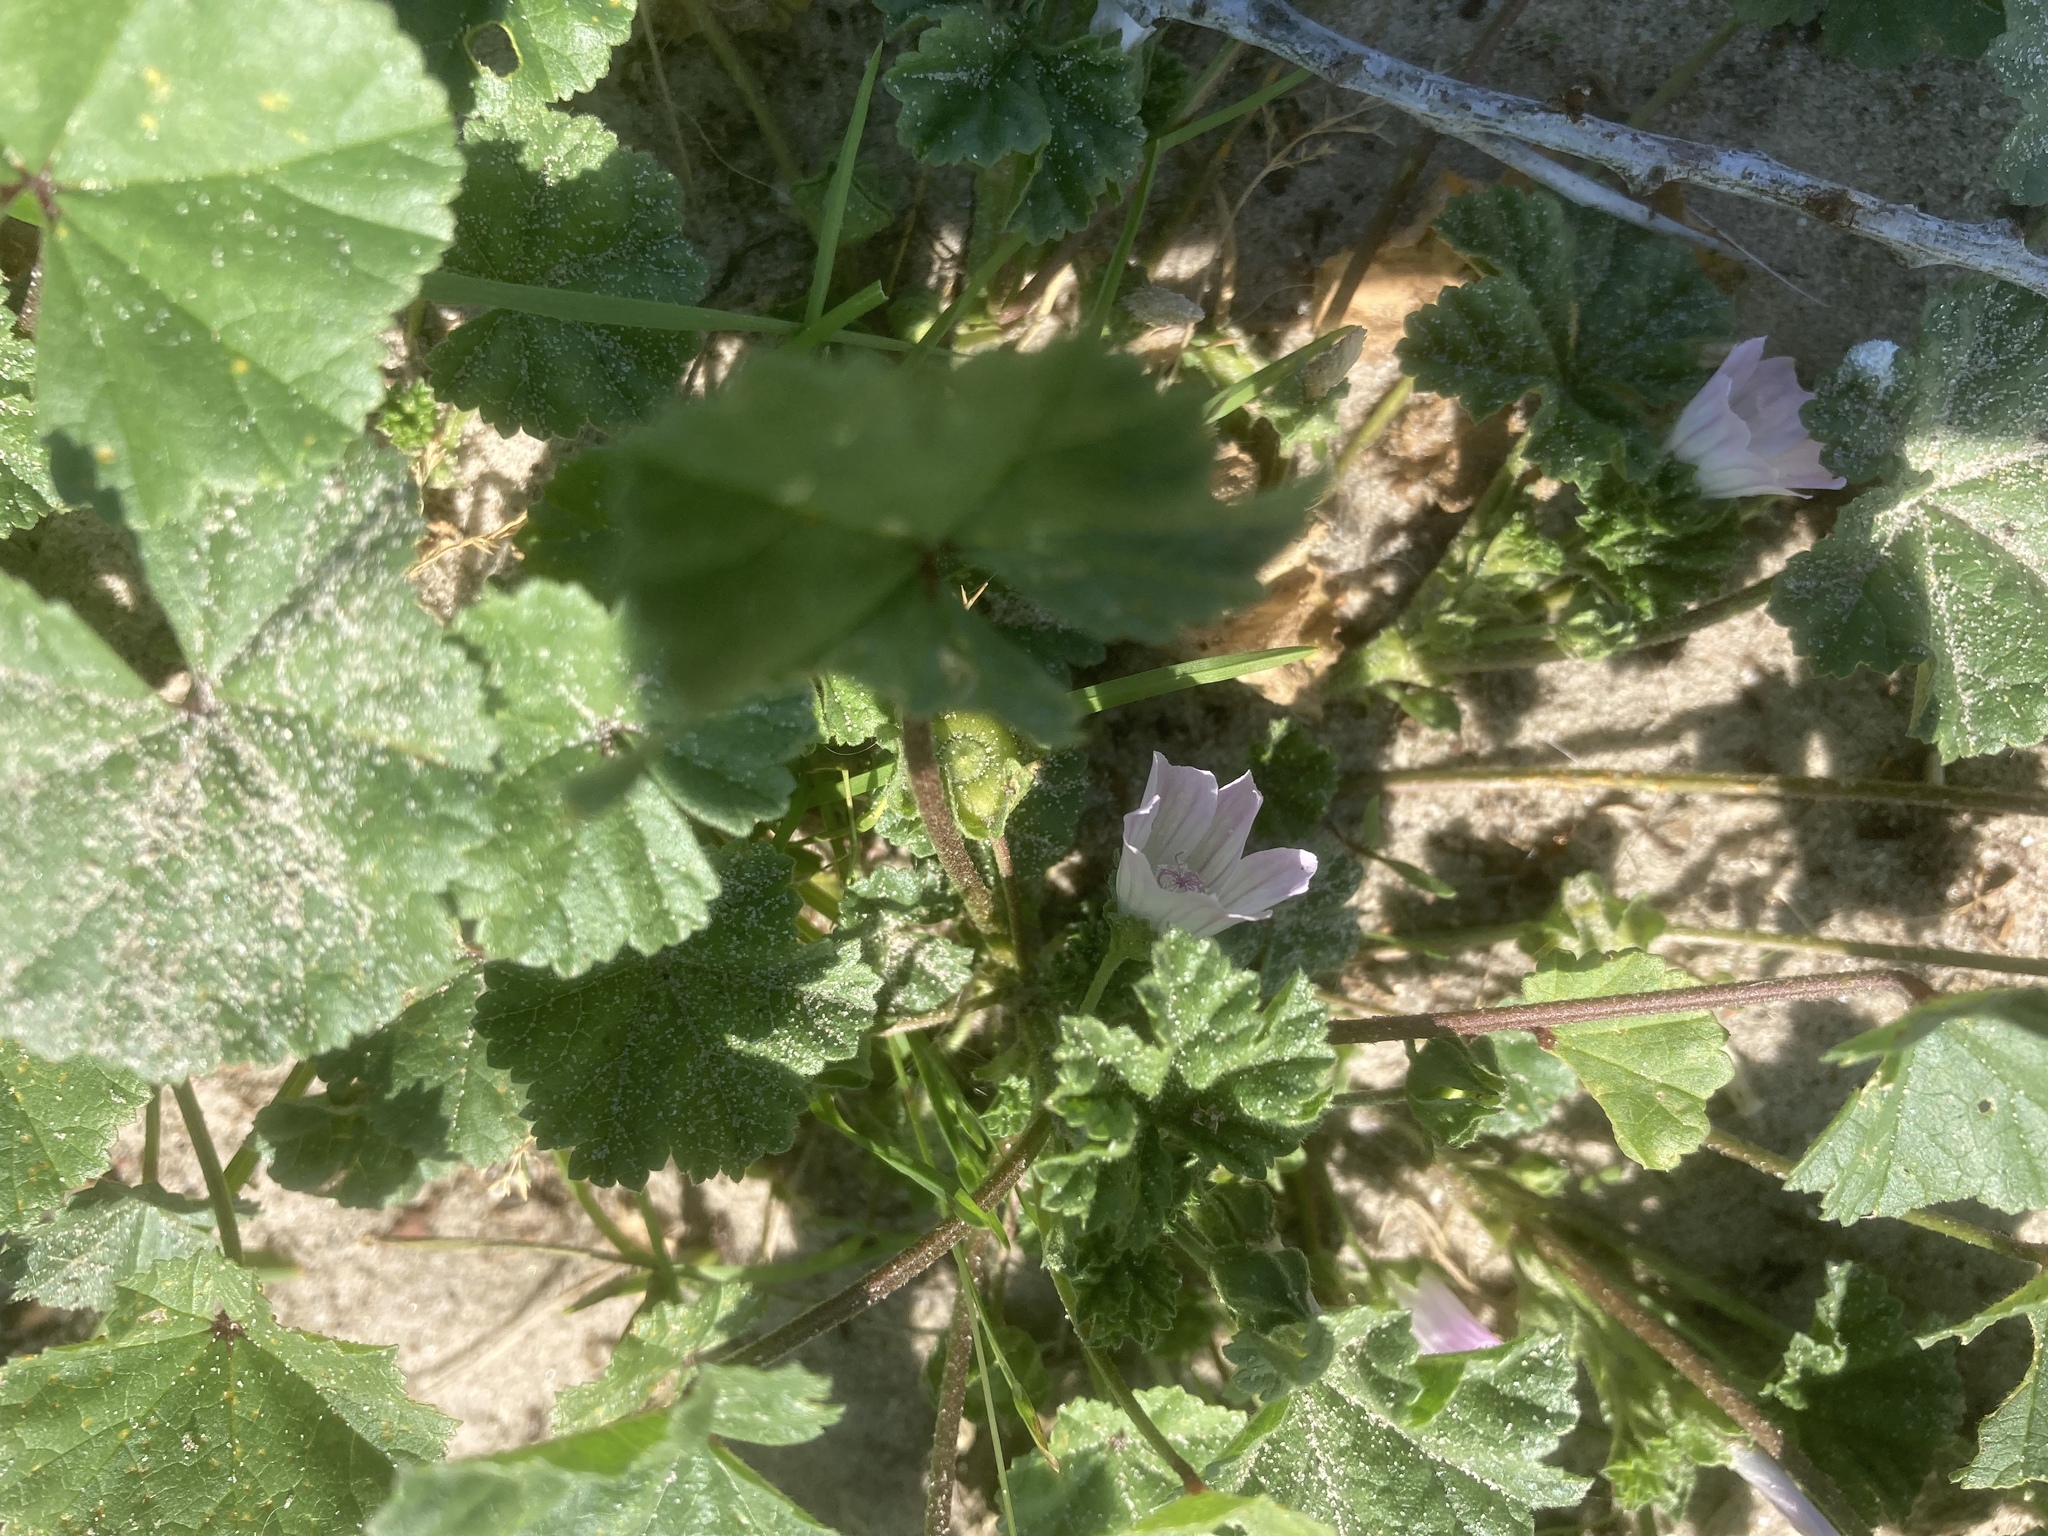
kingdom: Plantae
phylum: Tracheophyta
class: Magnoliopsida
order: Malvales
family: Malvaceae
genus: Malva
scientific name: Malva neglecta
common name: Common mallow
